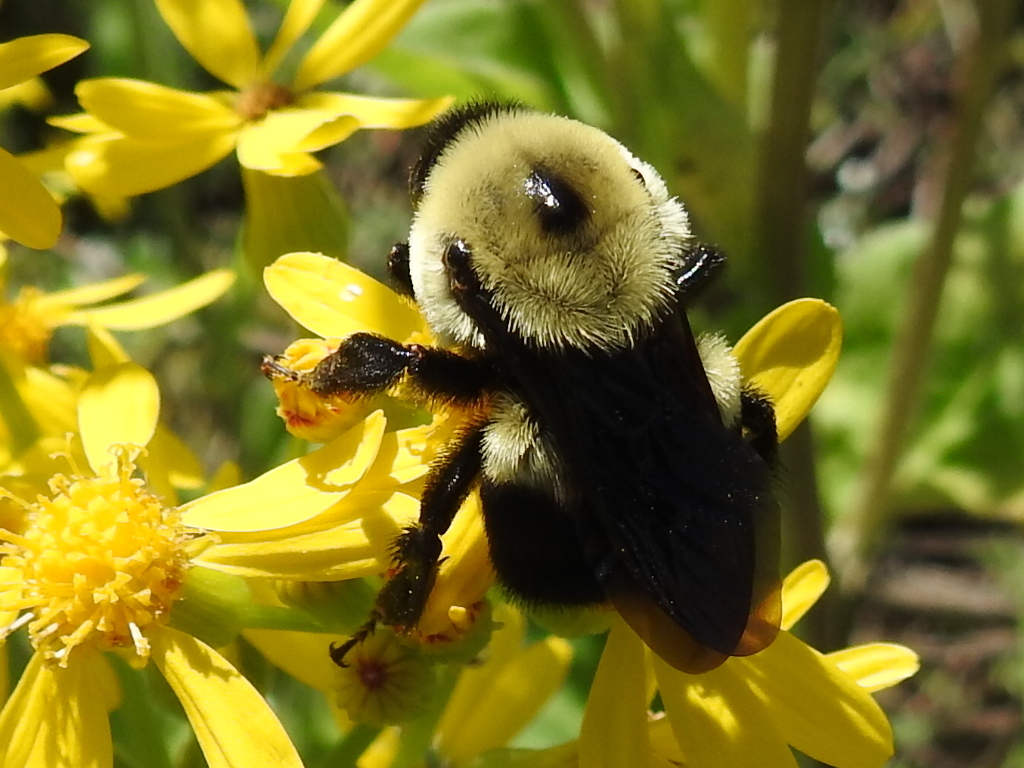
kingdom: Animalia
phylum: Arthropoda
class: Insecta
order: Hymenoptera
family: Apidae
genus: Bombus
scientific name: Bombus griseocollis
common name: Brown-belted bumble bee
